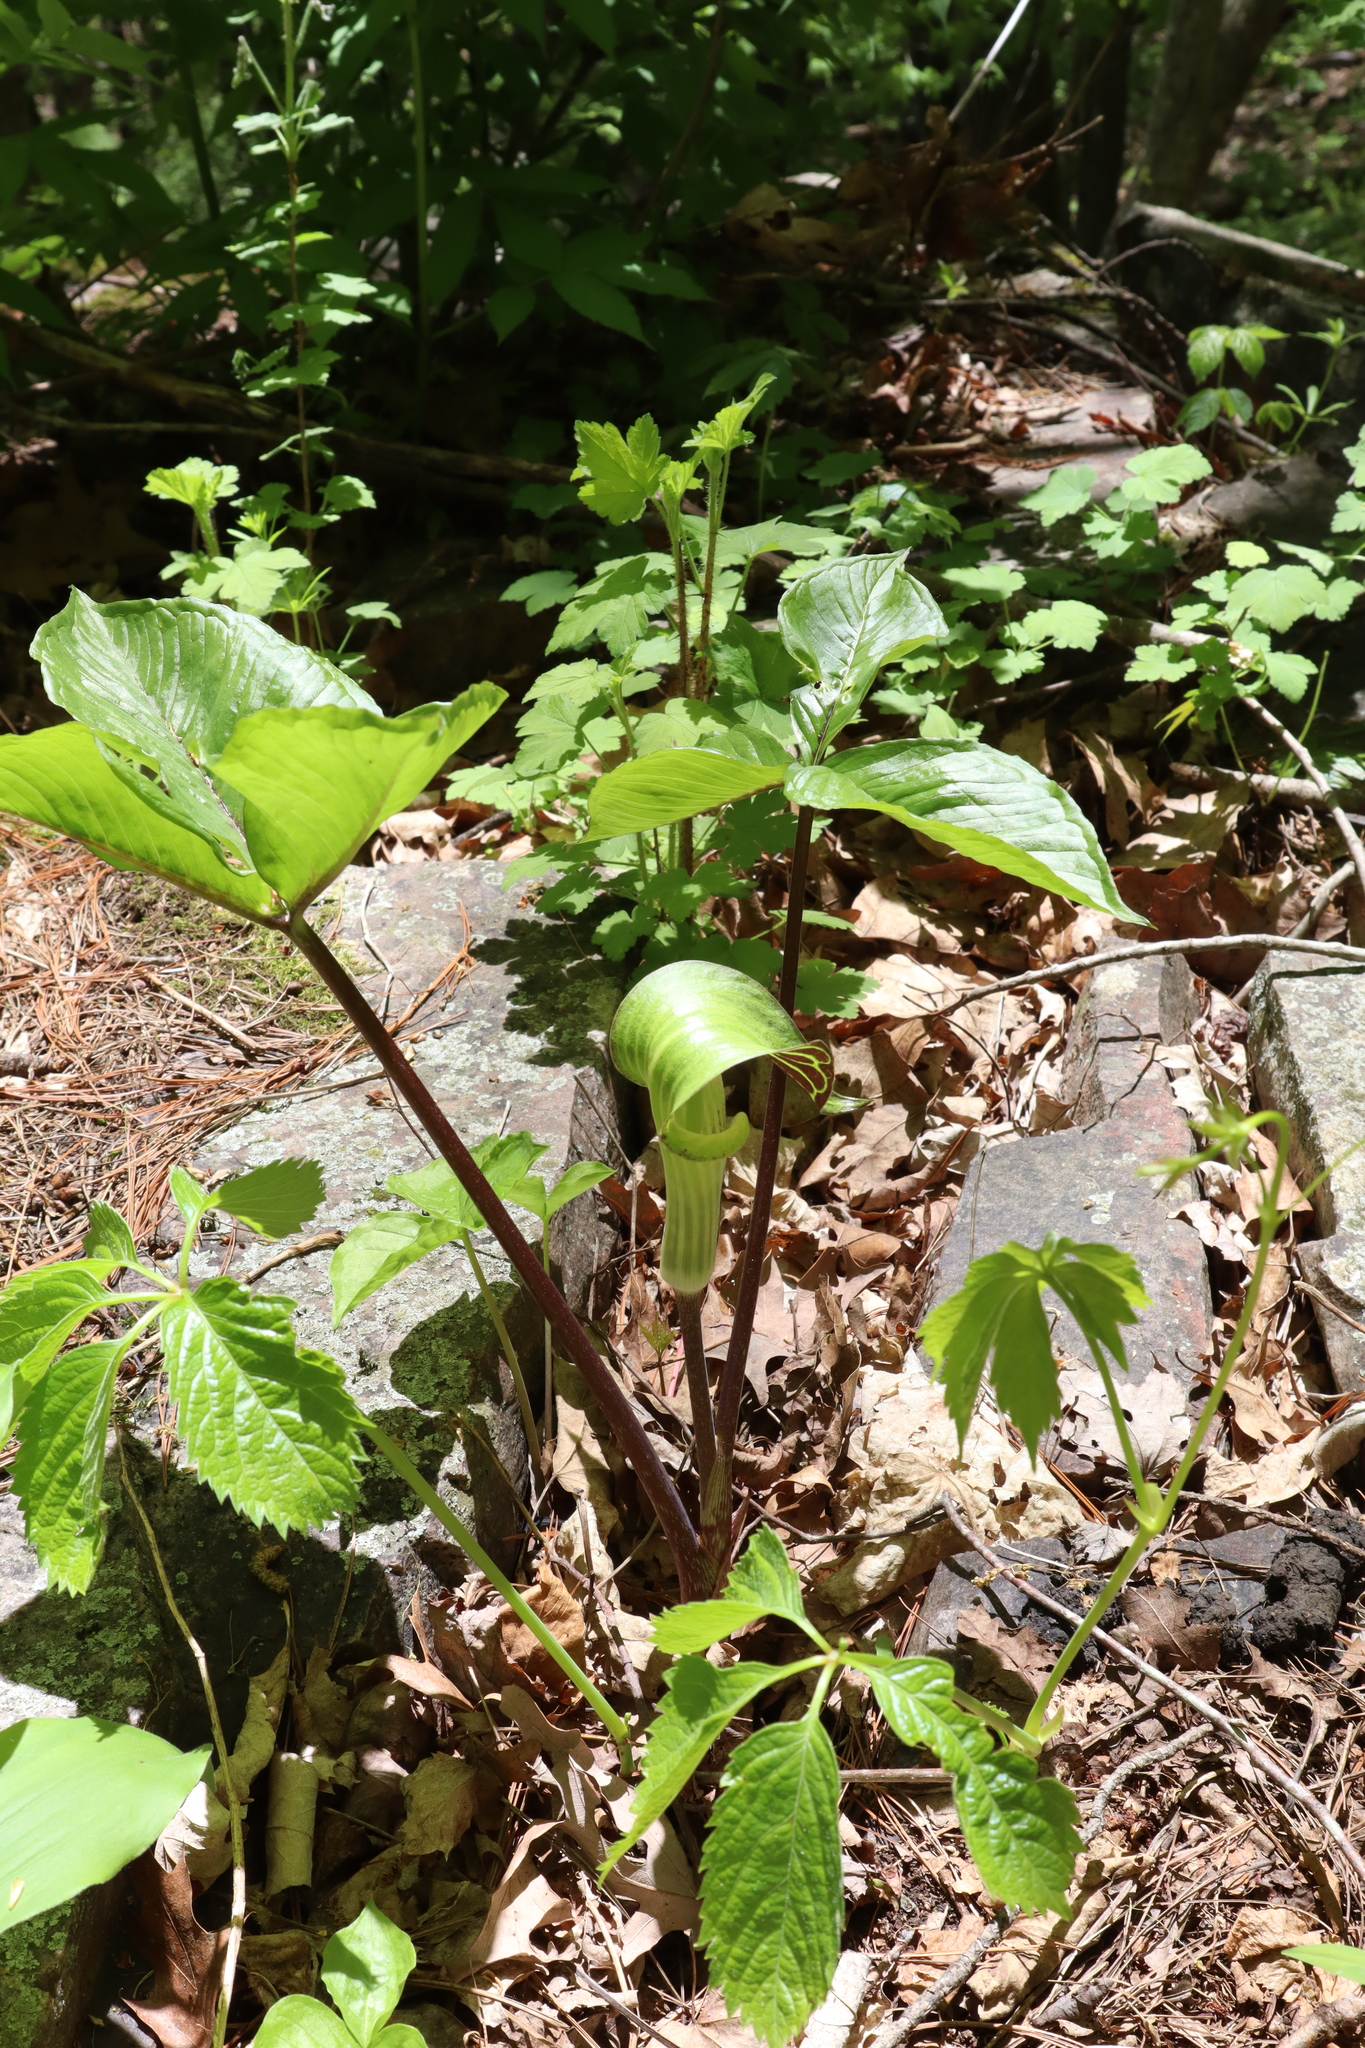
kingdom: Plantae
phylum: Tracheophyta
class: Liliopsida
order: Alismatales
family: Araceae
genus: Arisaema
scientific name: Arisaema triphyllum
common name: Jack-in-the-pulpit
